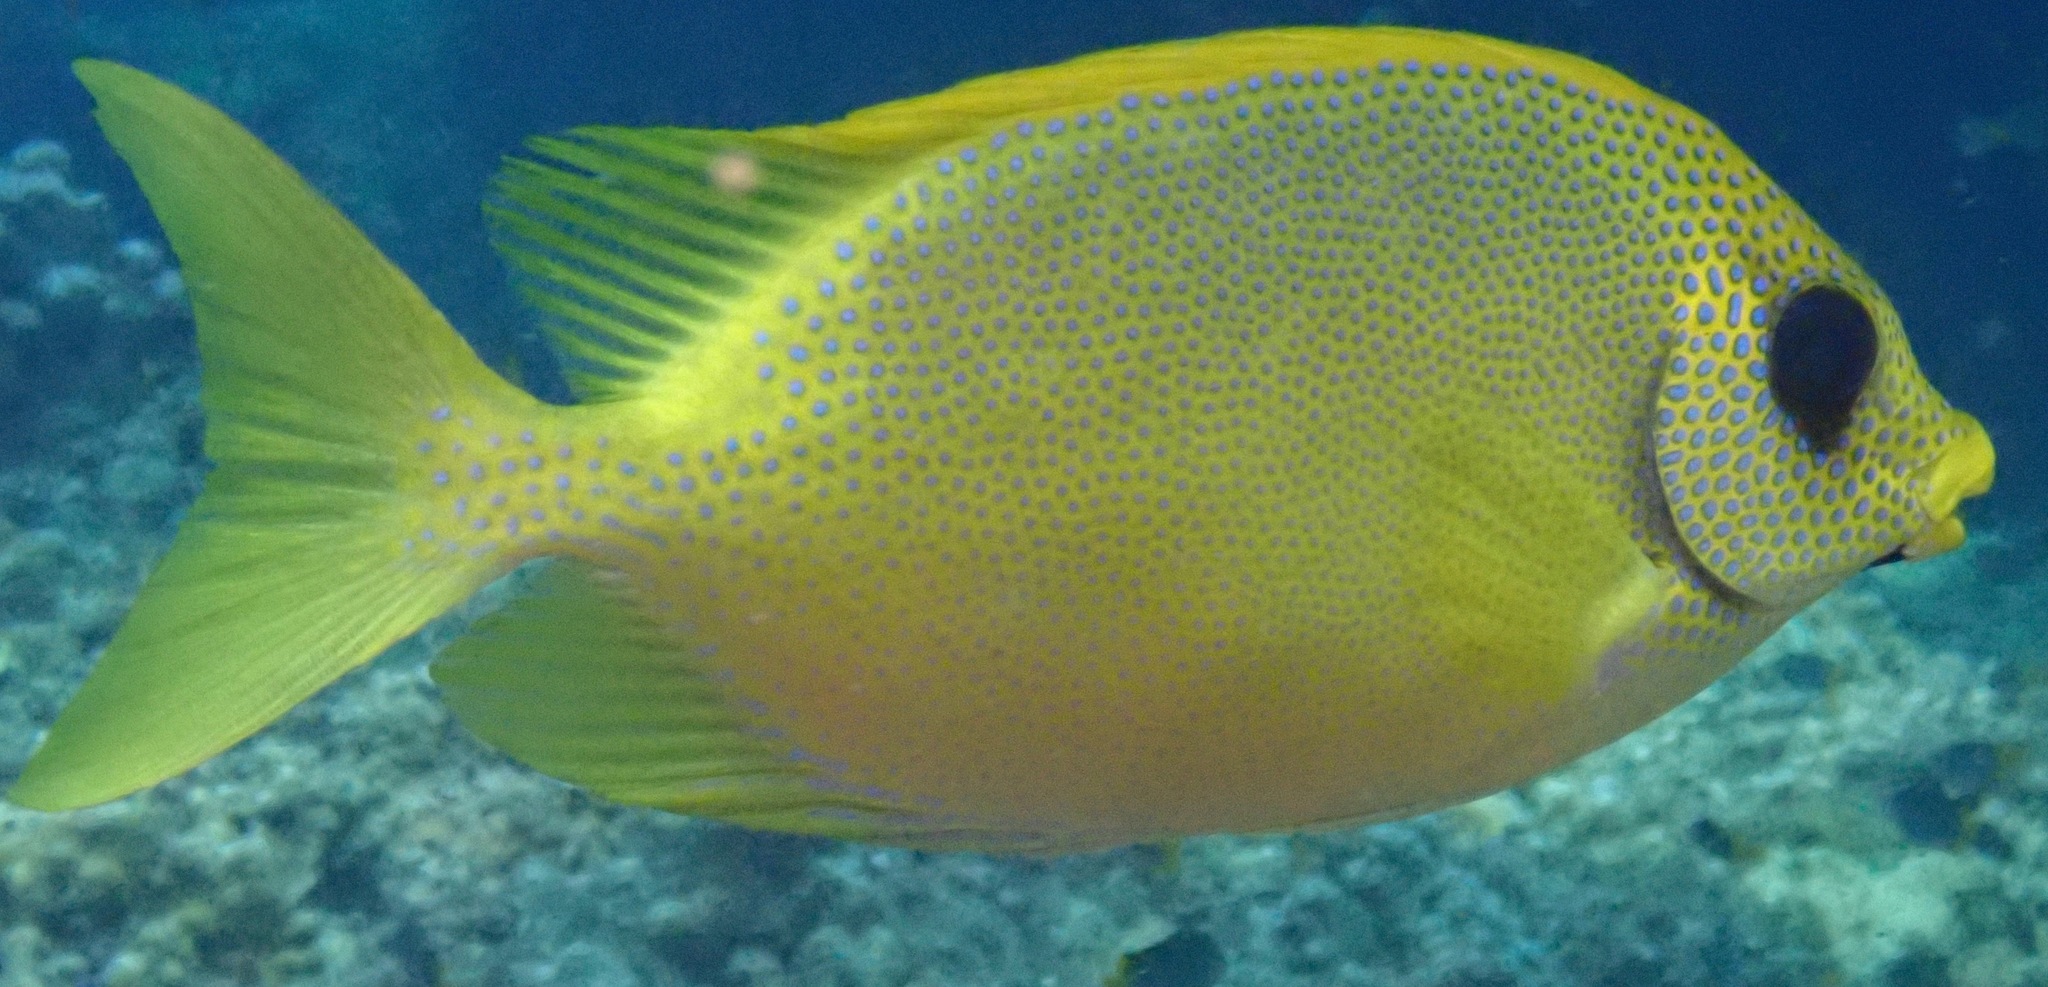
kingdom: Animalia
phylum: Chordata
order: Perciformes
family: Siganidae
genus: Siganus
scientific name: Siganus corallinus
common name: Coral rabbitfish
